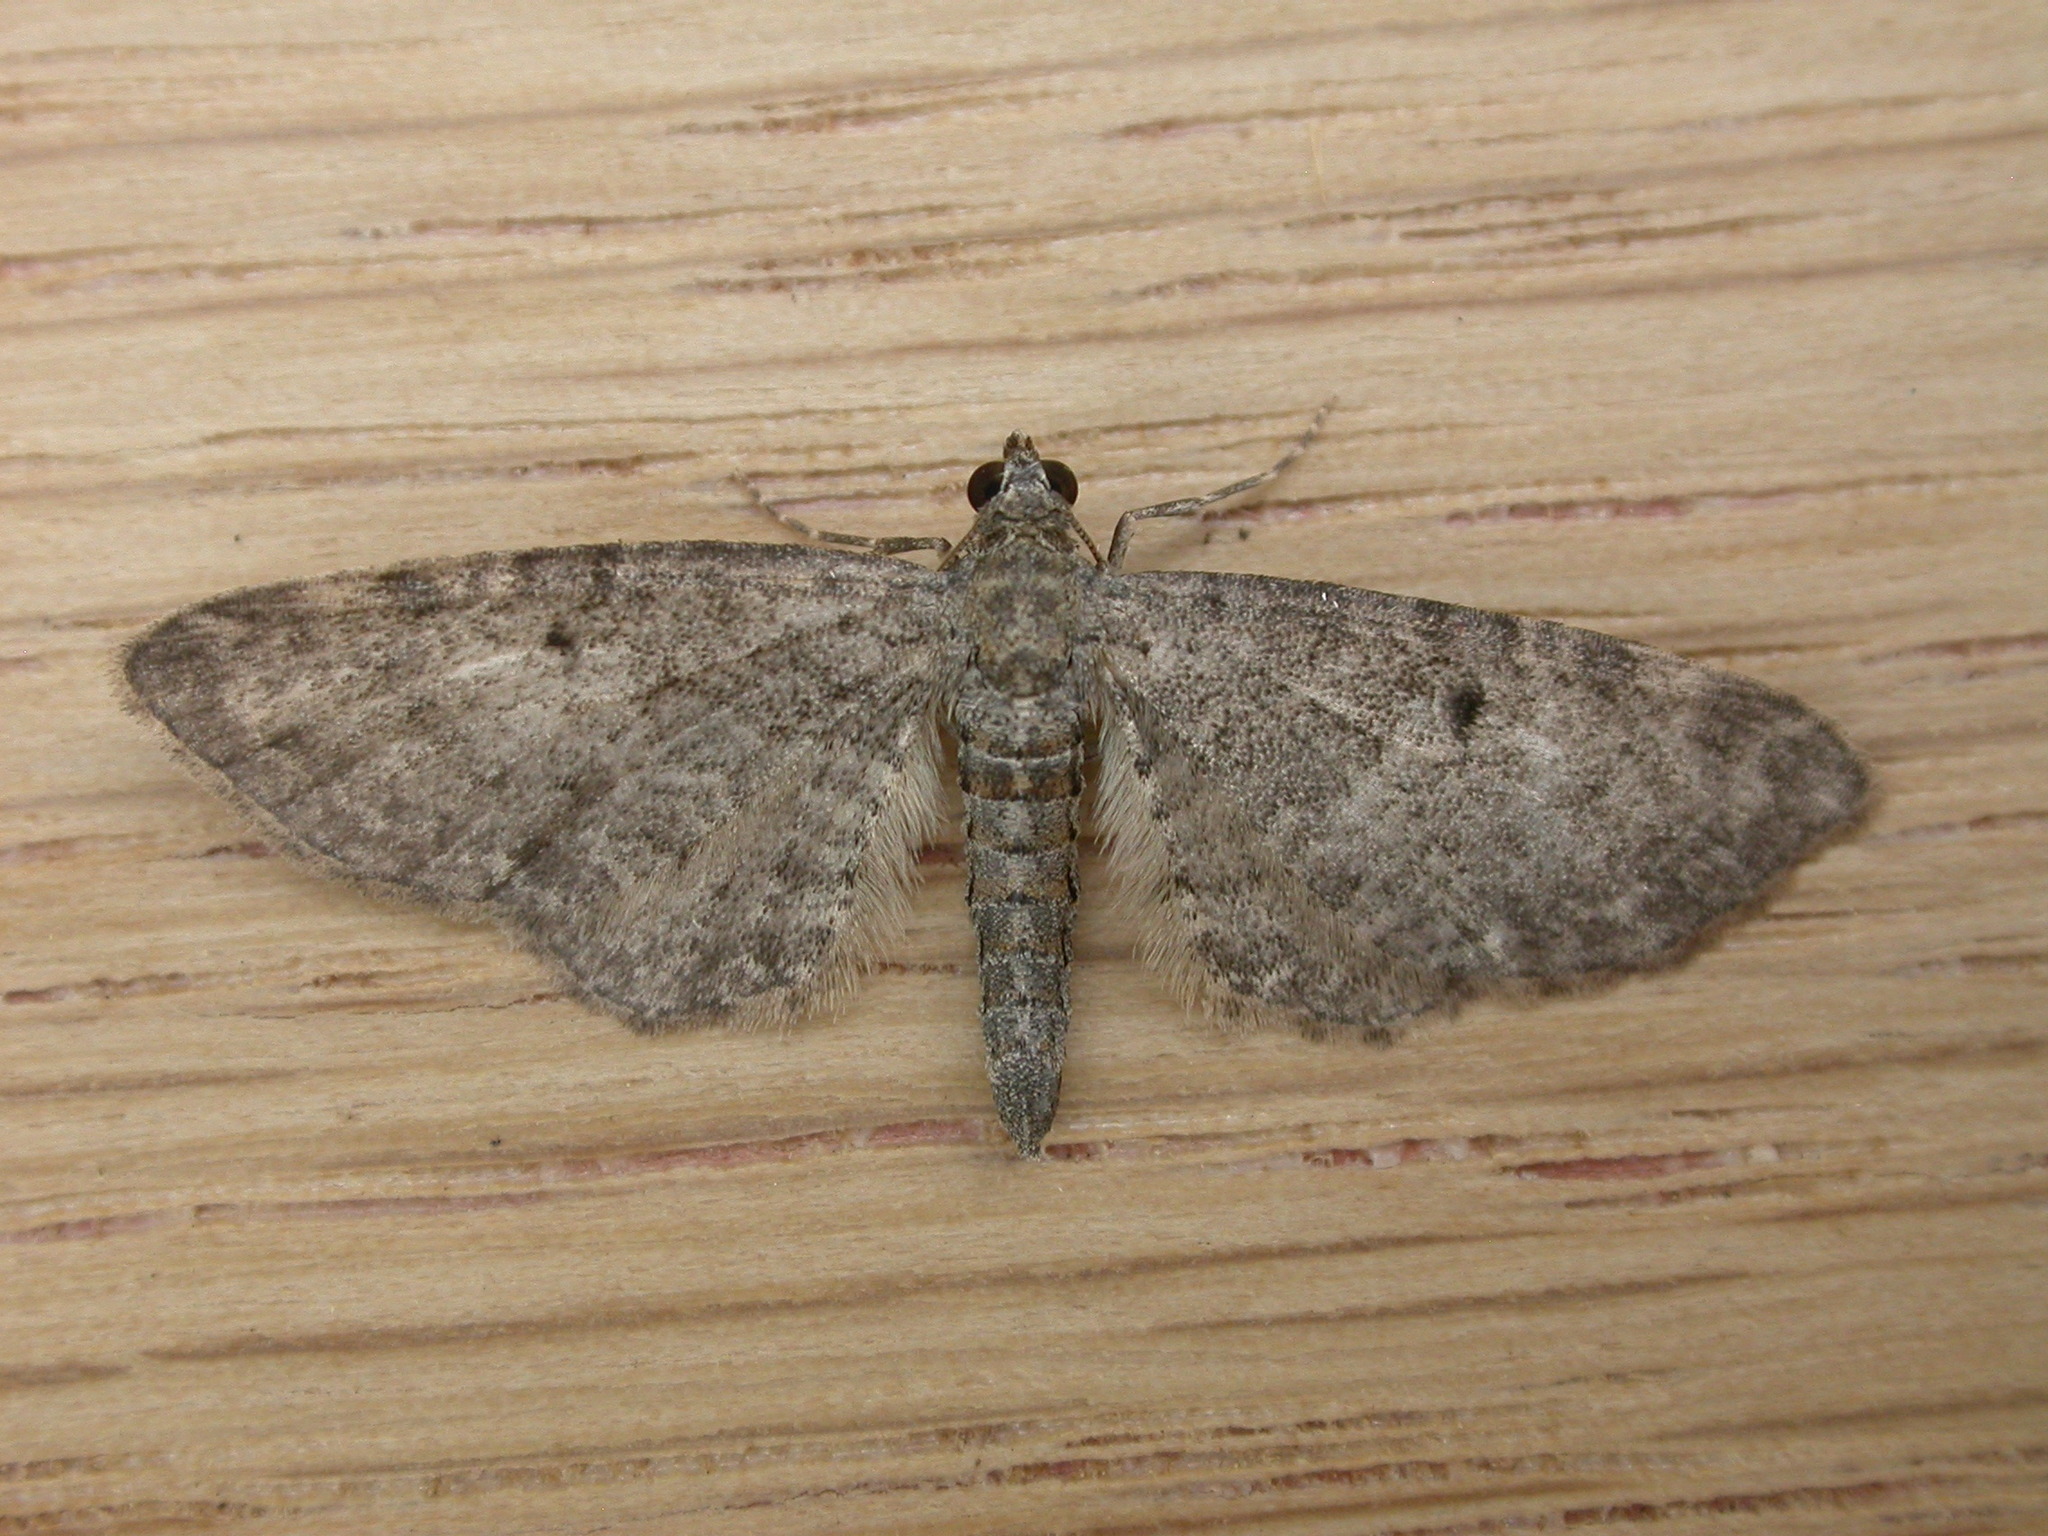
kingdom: Animalia
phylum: Arthropoda
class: Insecta
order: Lepidoptera
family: Geometridae
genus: Eupithecia
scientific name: Eupithecia subfuscata
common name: Grey pug
